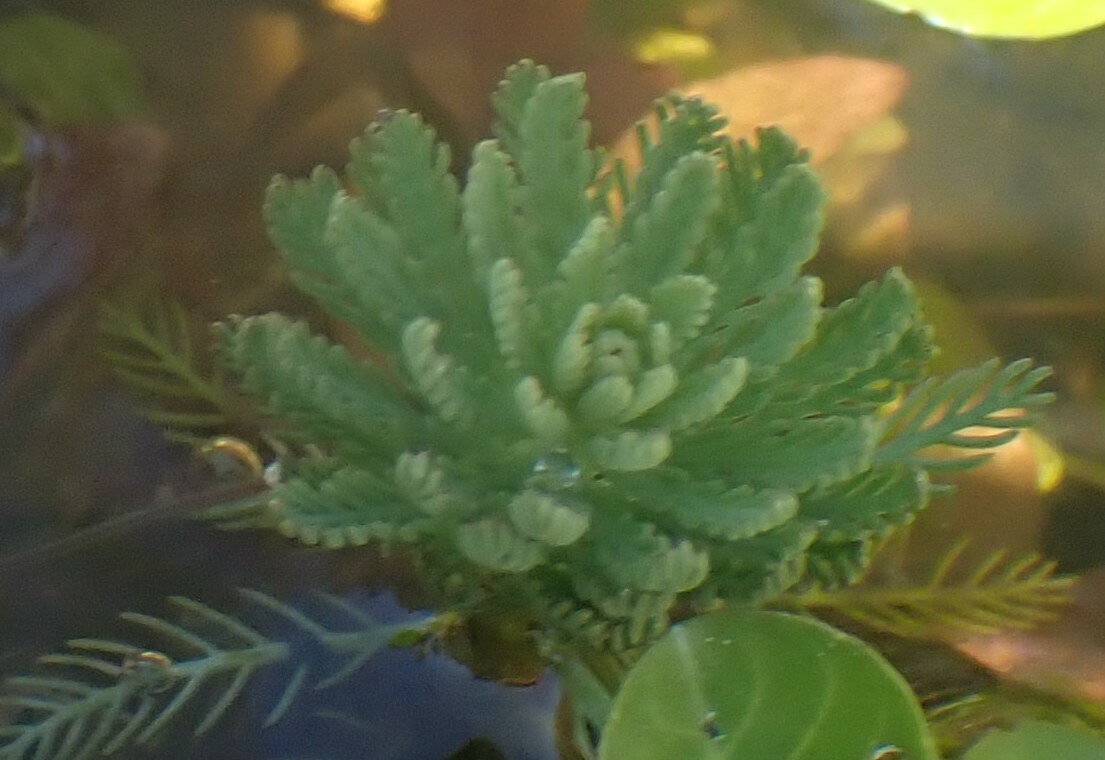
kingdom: Plantae
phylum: Tracheophyta
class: Magnoliopsida
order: Saxifragales
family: Haloragaceae
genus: Myriophyllum
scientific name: Myriophyllum aquaticum
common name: Parrot's feather
